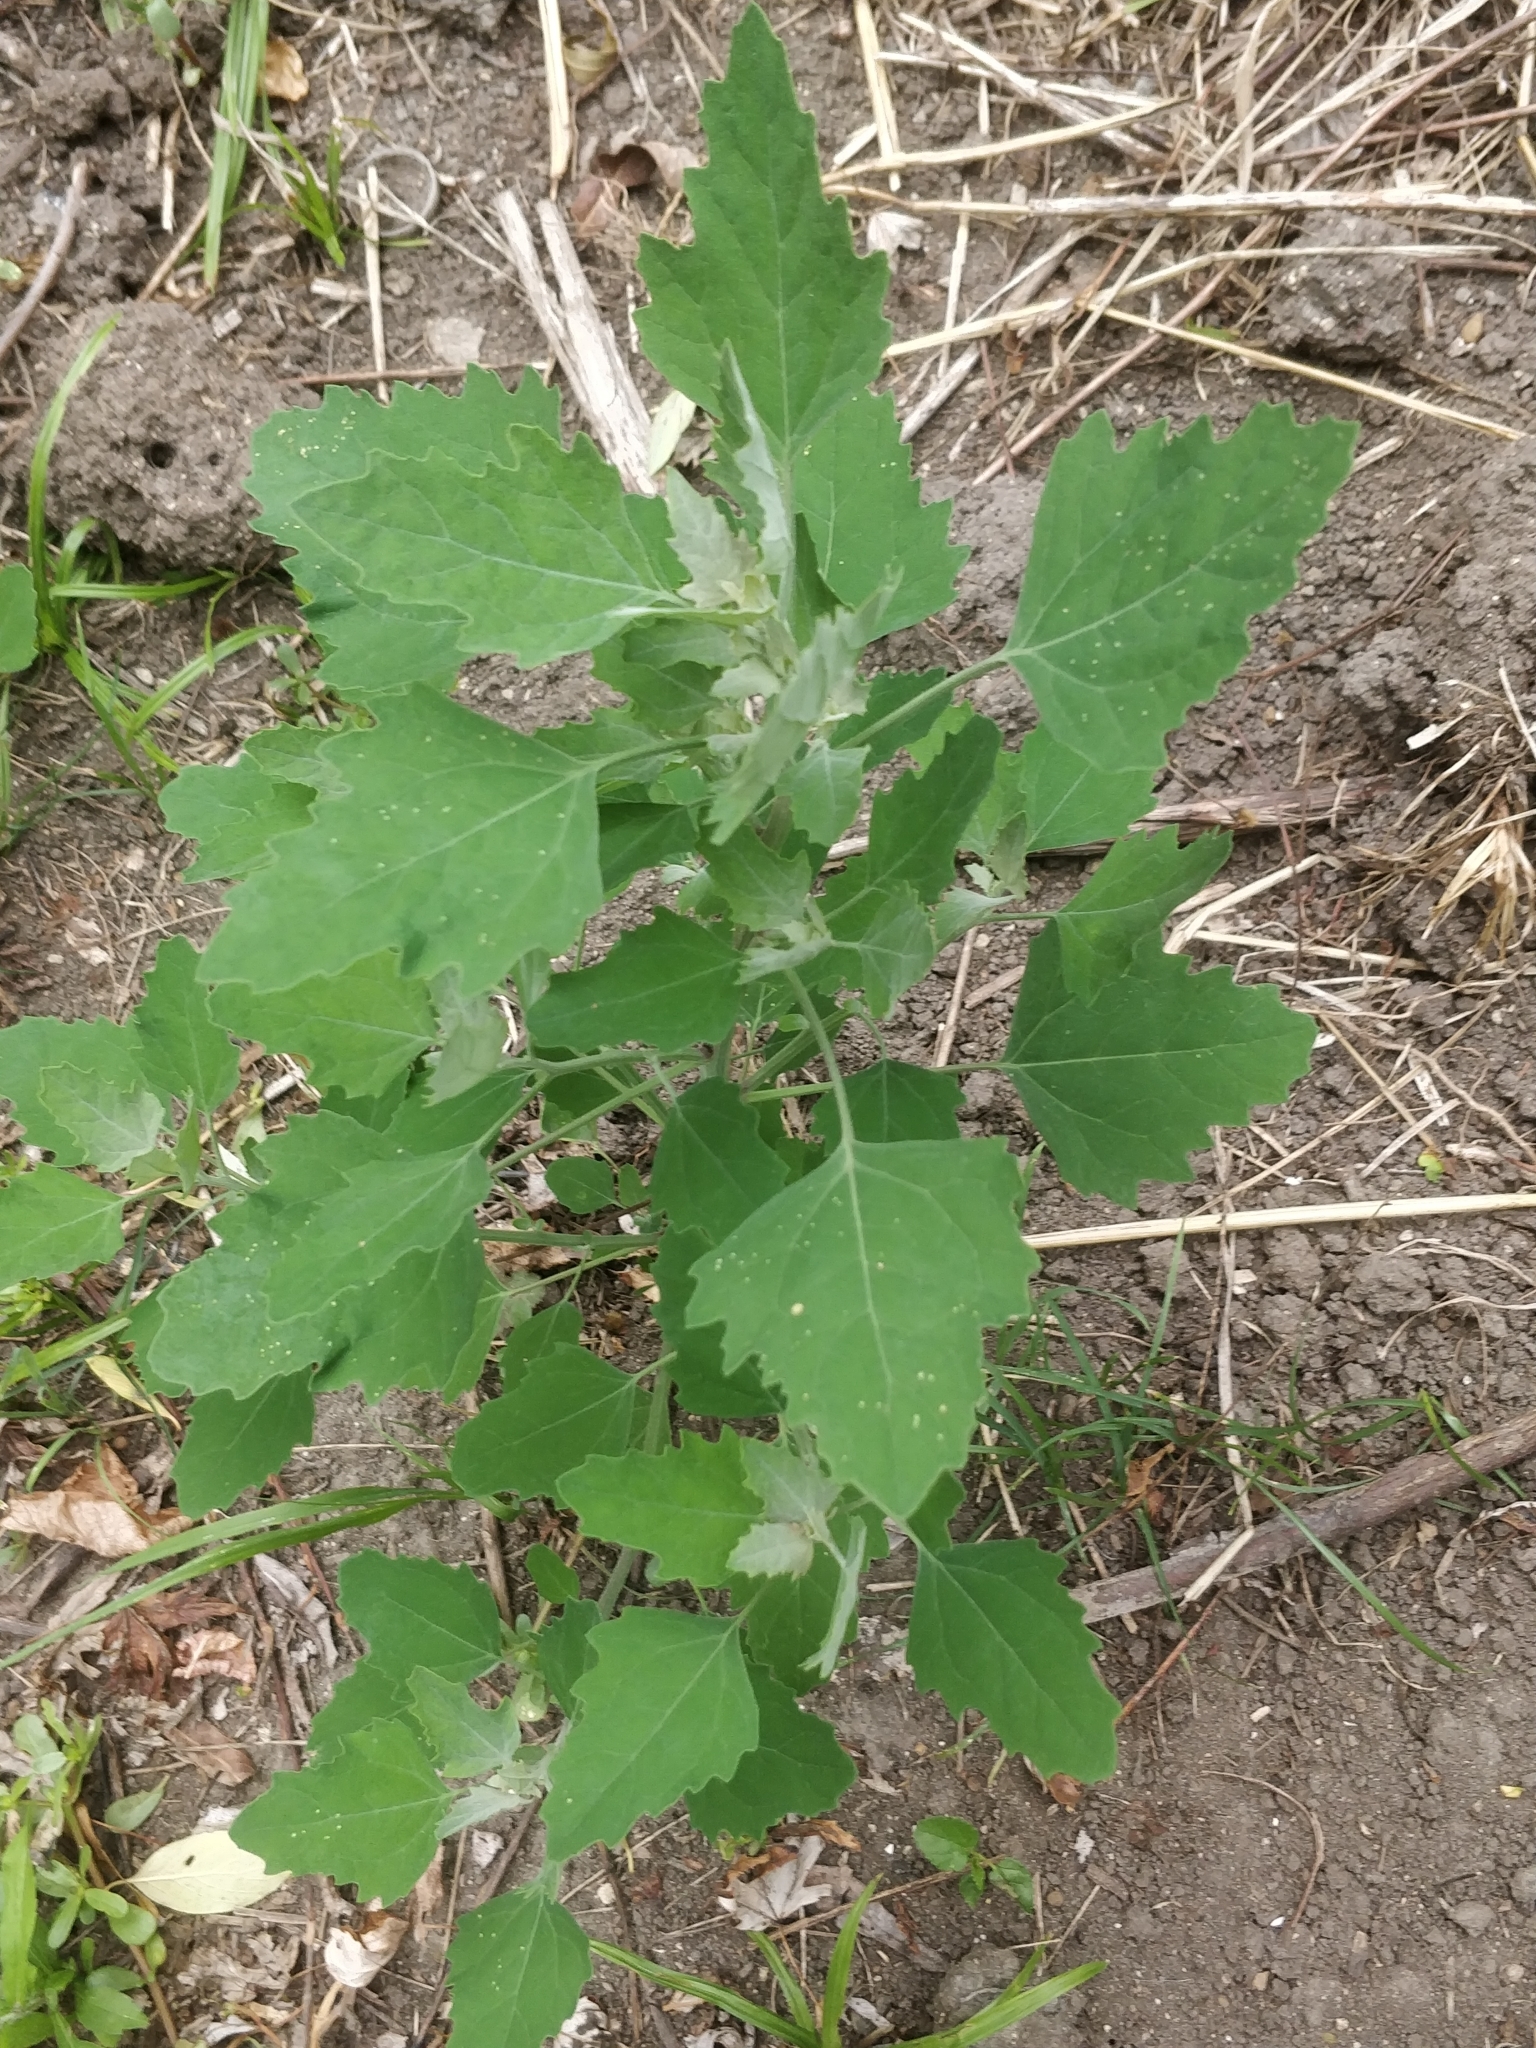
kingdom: Plantae
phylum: Tracheophyta
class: Magnoliopsida
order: Caryophyllales
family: Amaranthaceae
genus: Chenopodium
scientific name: Chenopodium album
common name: Fat-hen
